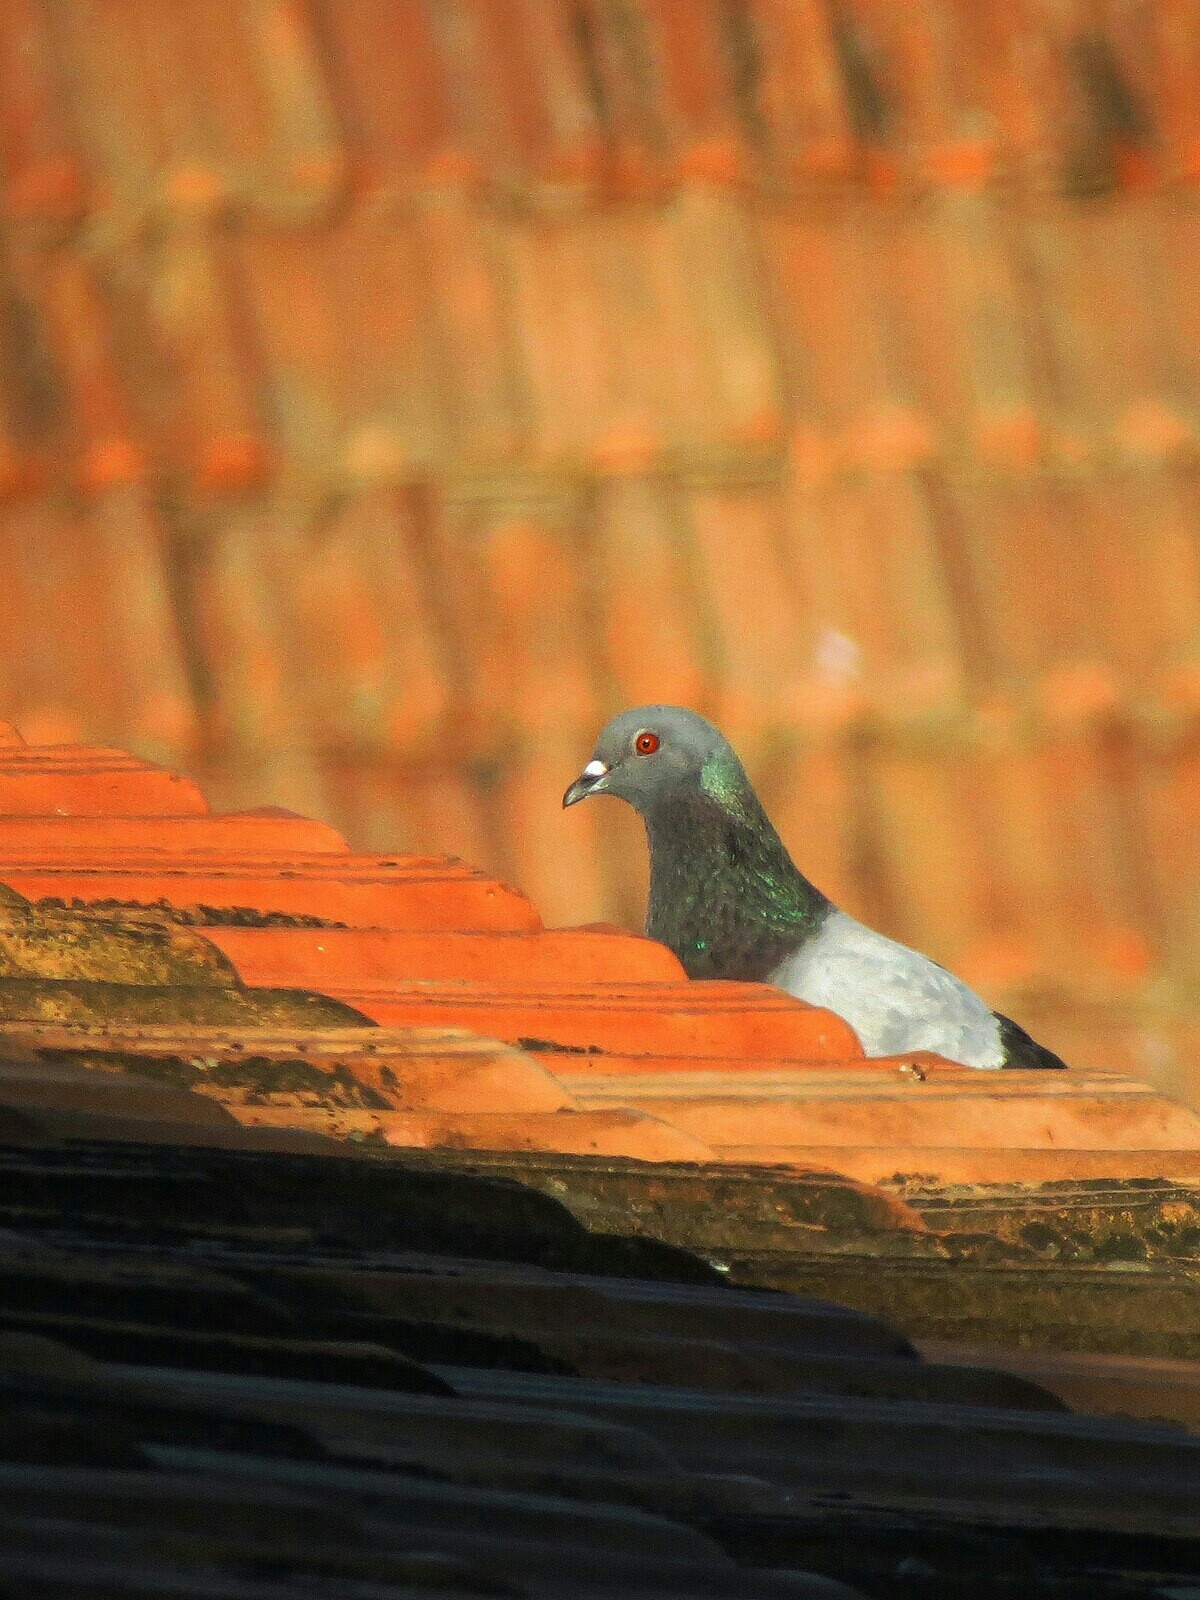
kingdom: Animalia
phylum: Chordata
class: Aves
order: Columbiformes
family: Columbidae
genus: Columba
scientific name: Columba livia
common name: Rock pigeon
